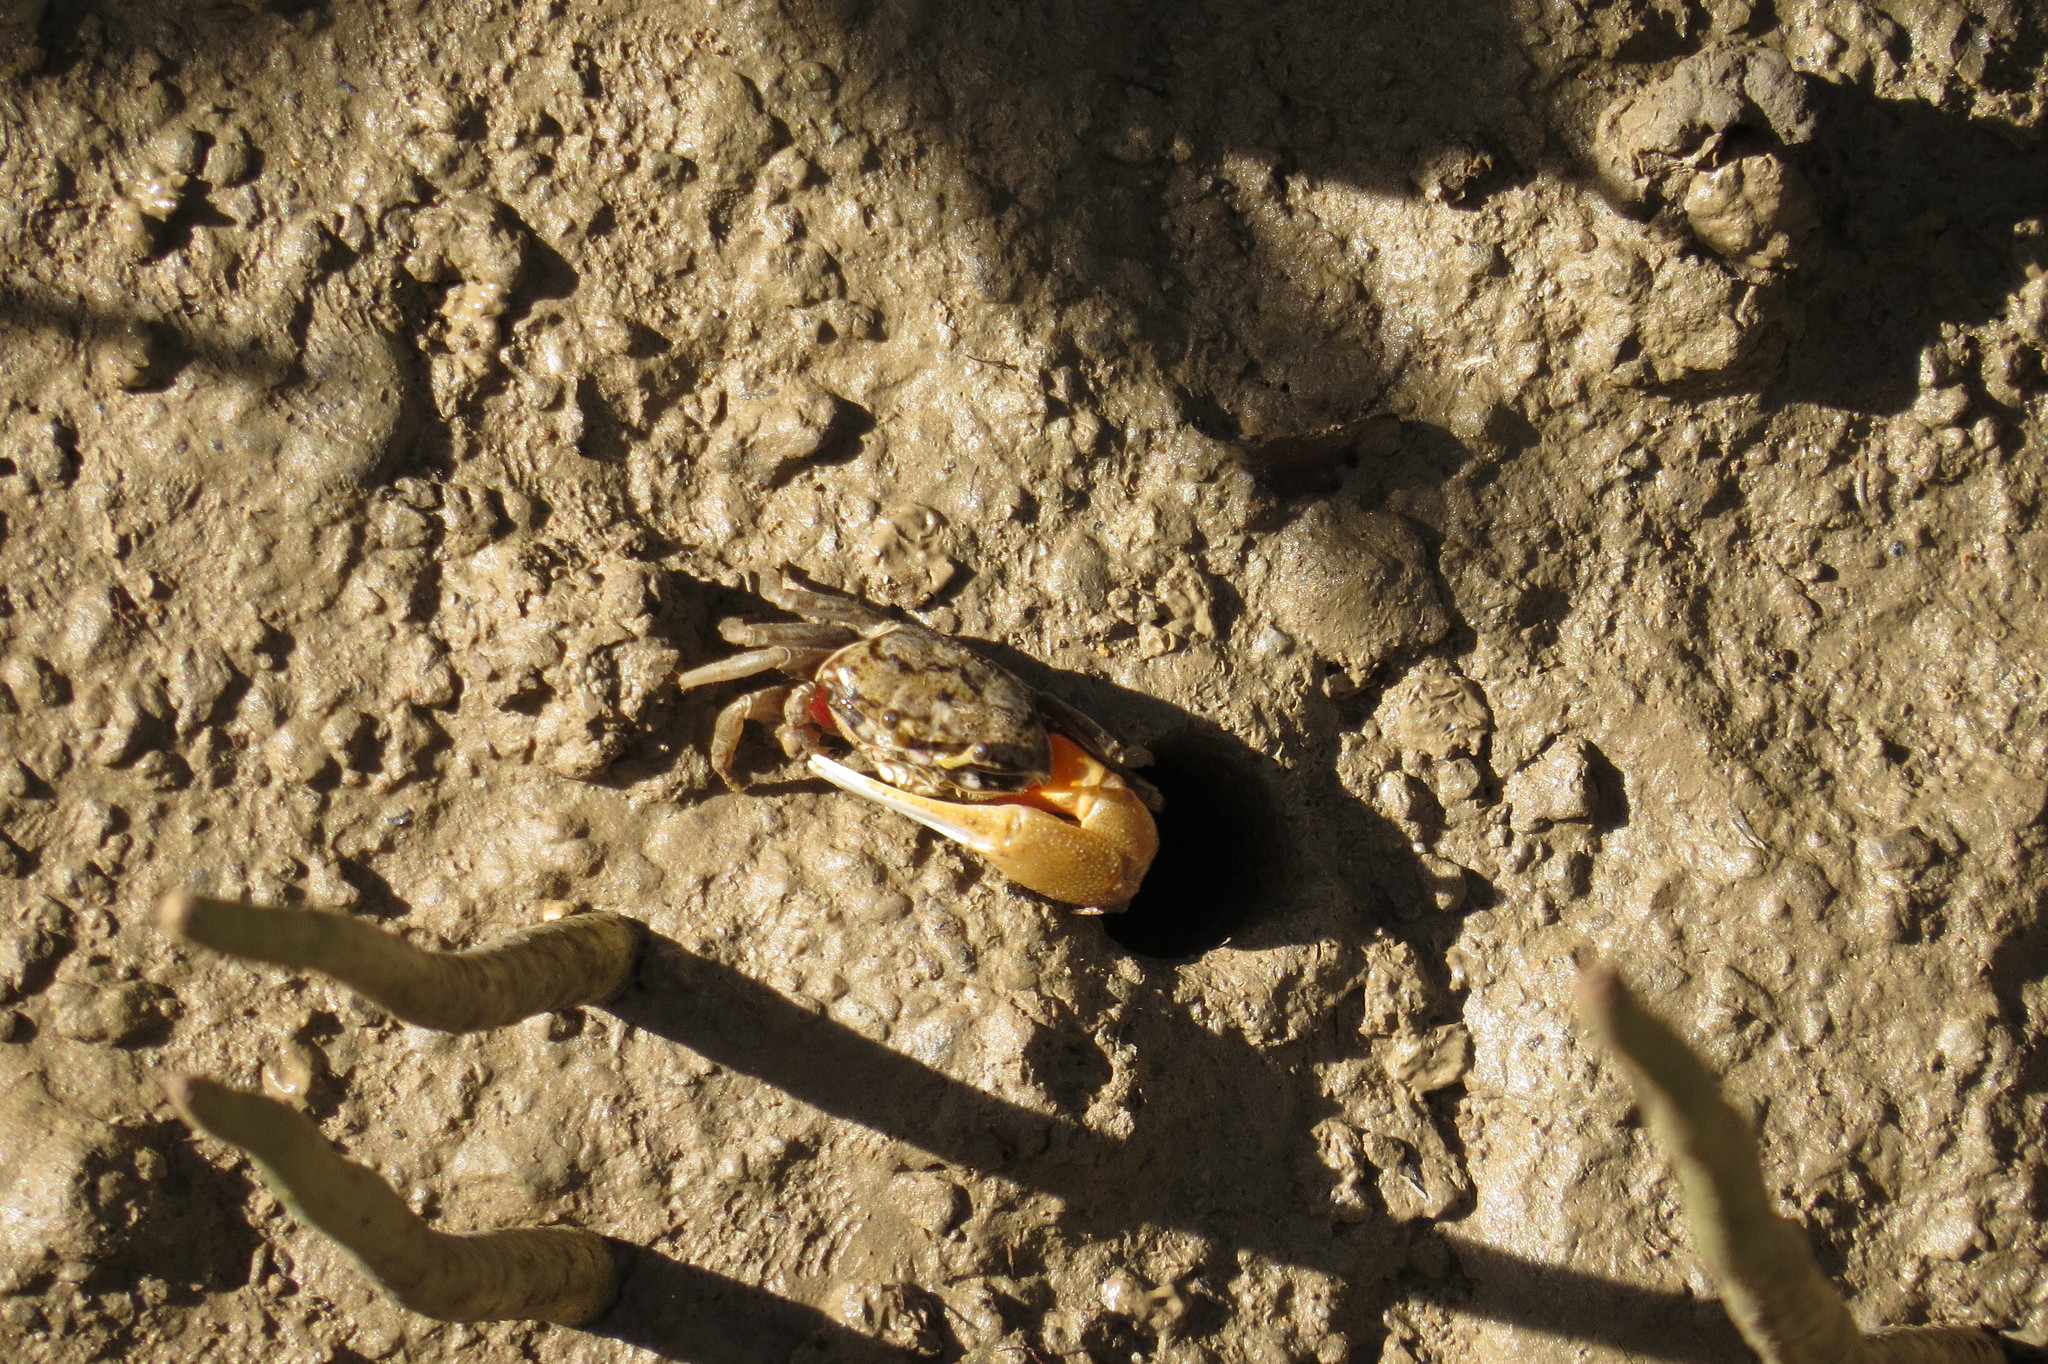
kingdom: Animalia
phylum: Arthropoda
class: Malacostraca
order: Decapoda
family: Ocypodidae
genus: Tubuca
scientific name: Tubuca signata
